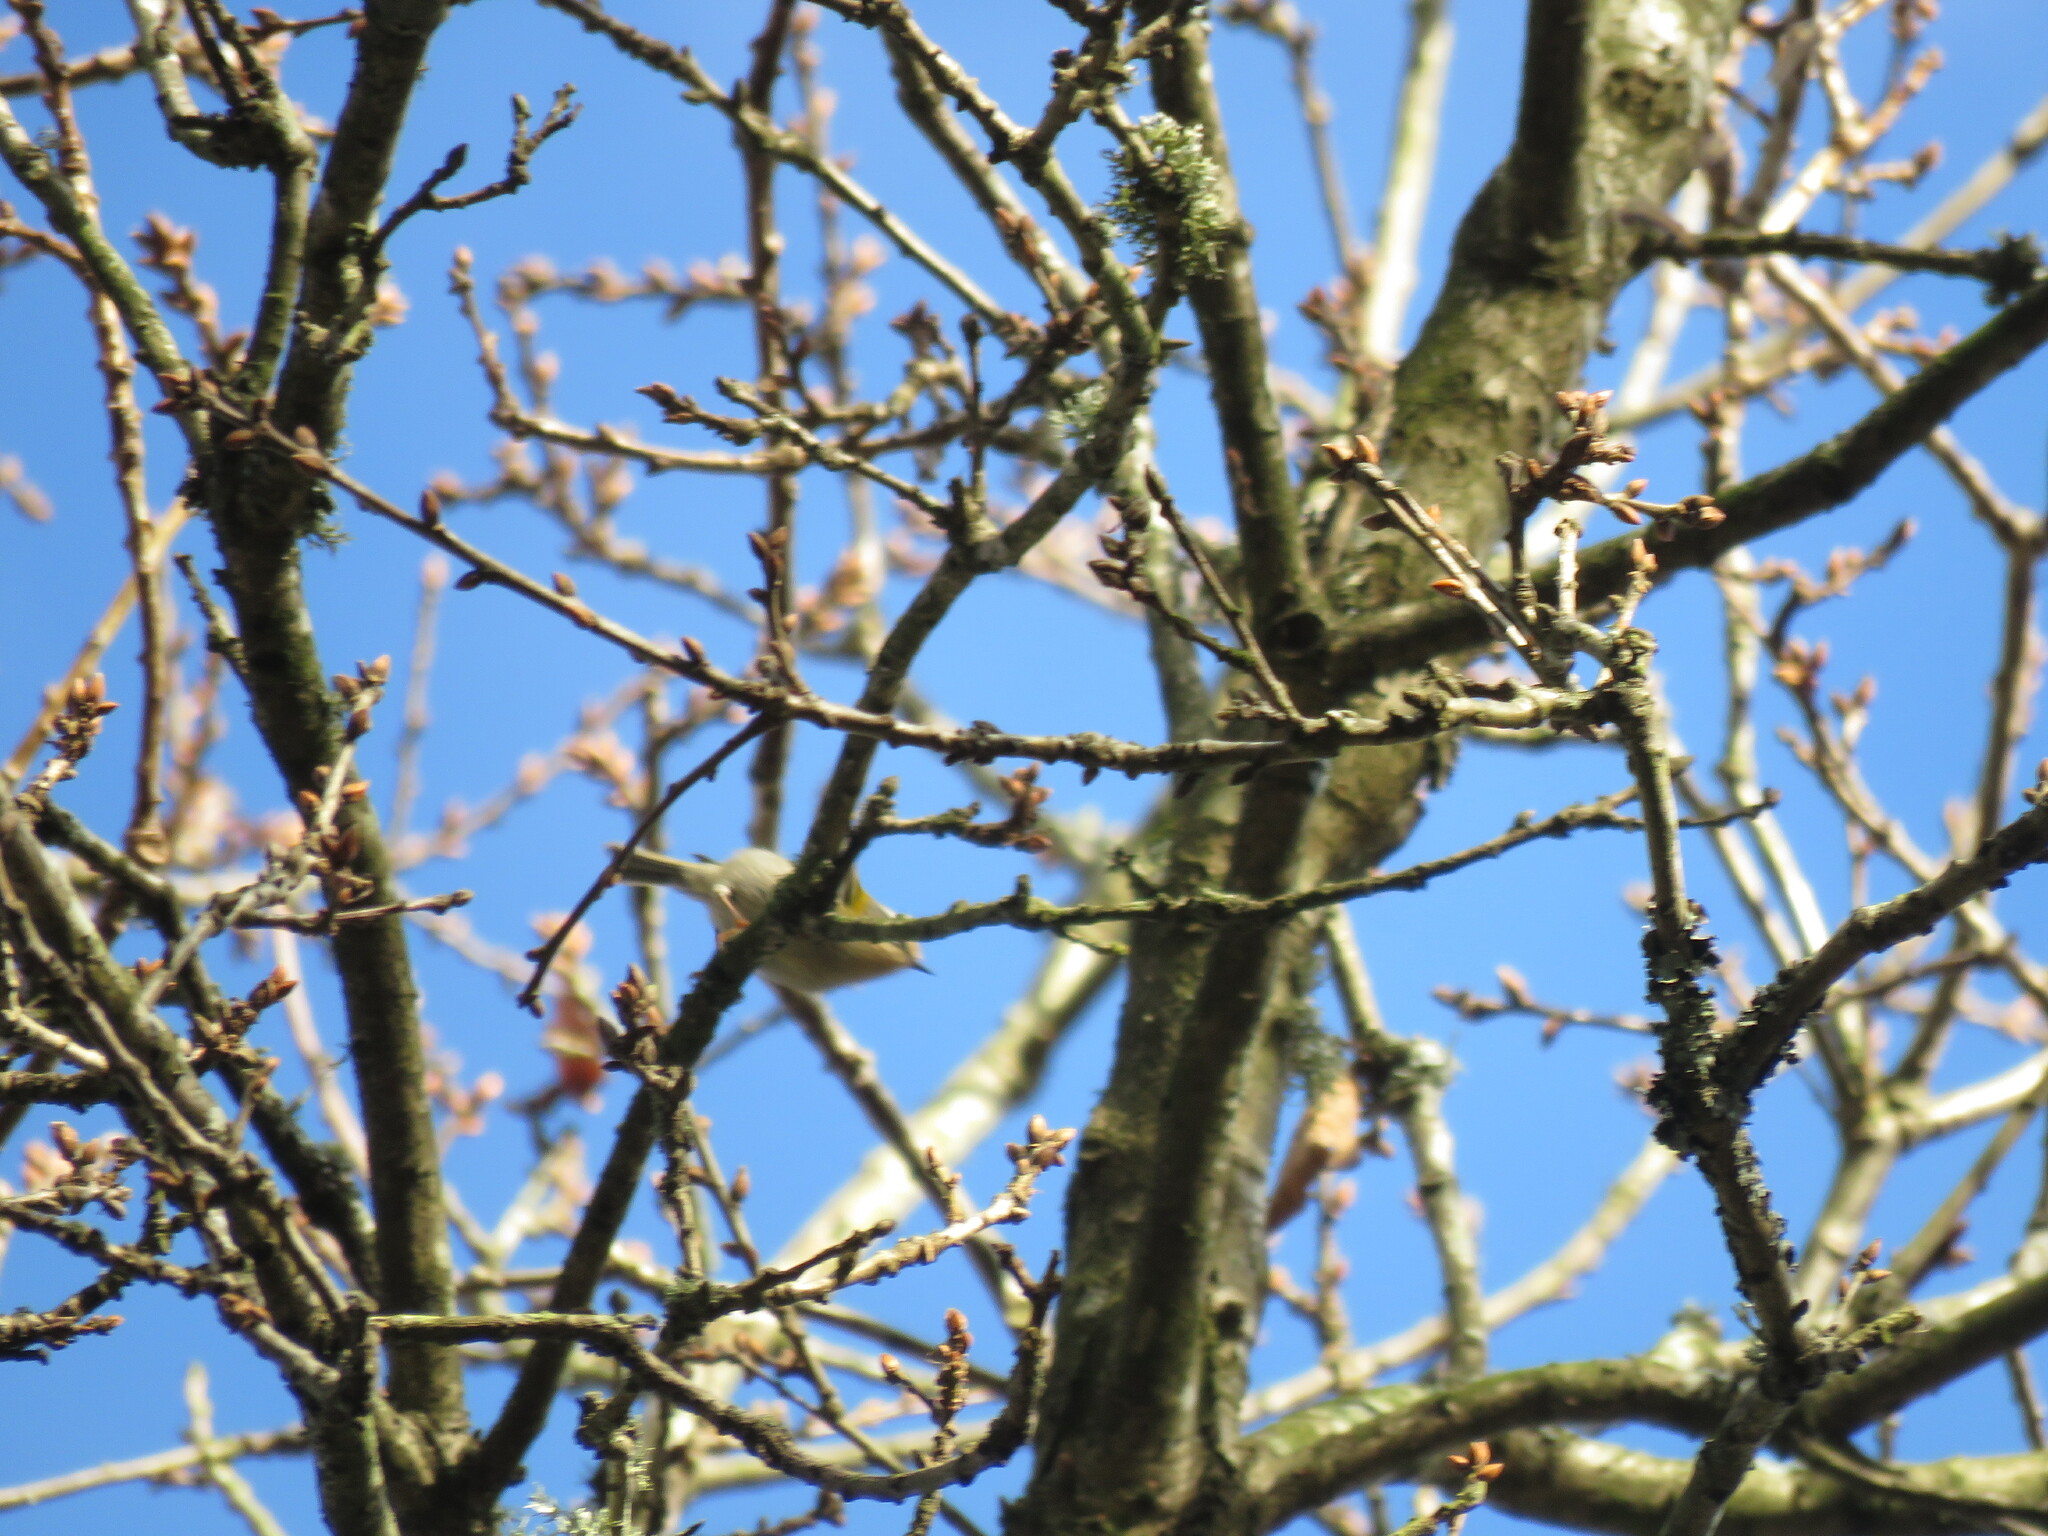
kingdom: Animalia
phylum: Chordata
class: Aves
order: Passeriformes
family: Regulidae
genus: Regulus
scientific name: Regulus ignicapilla
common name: Firecrest
